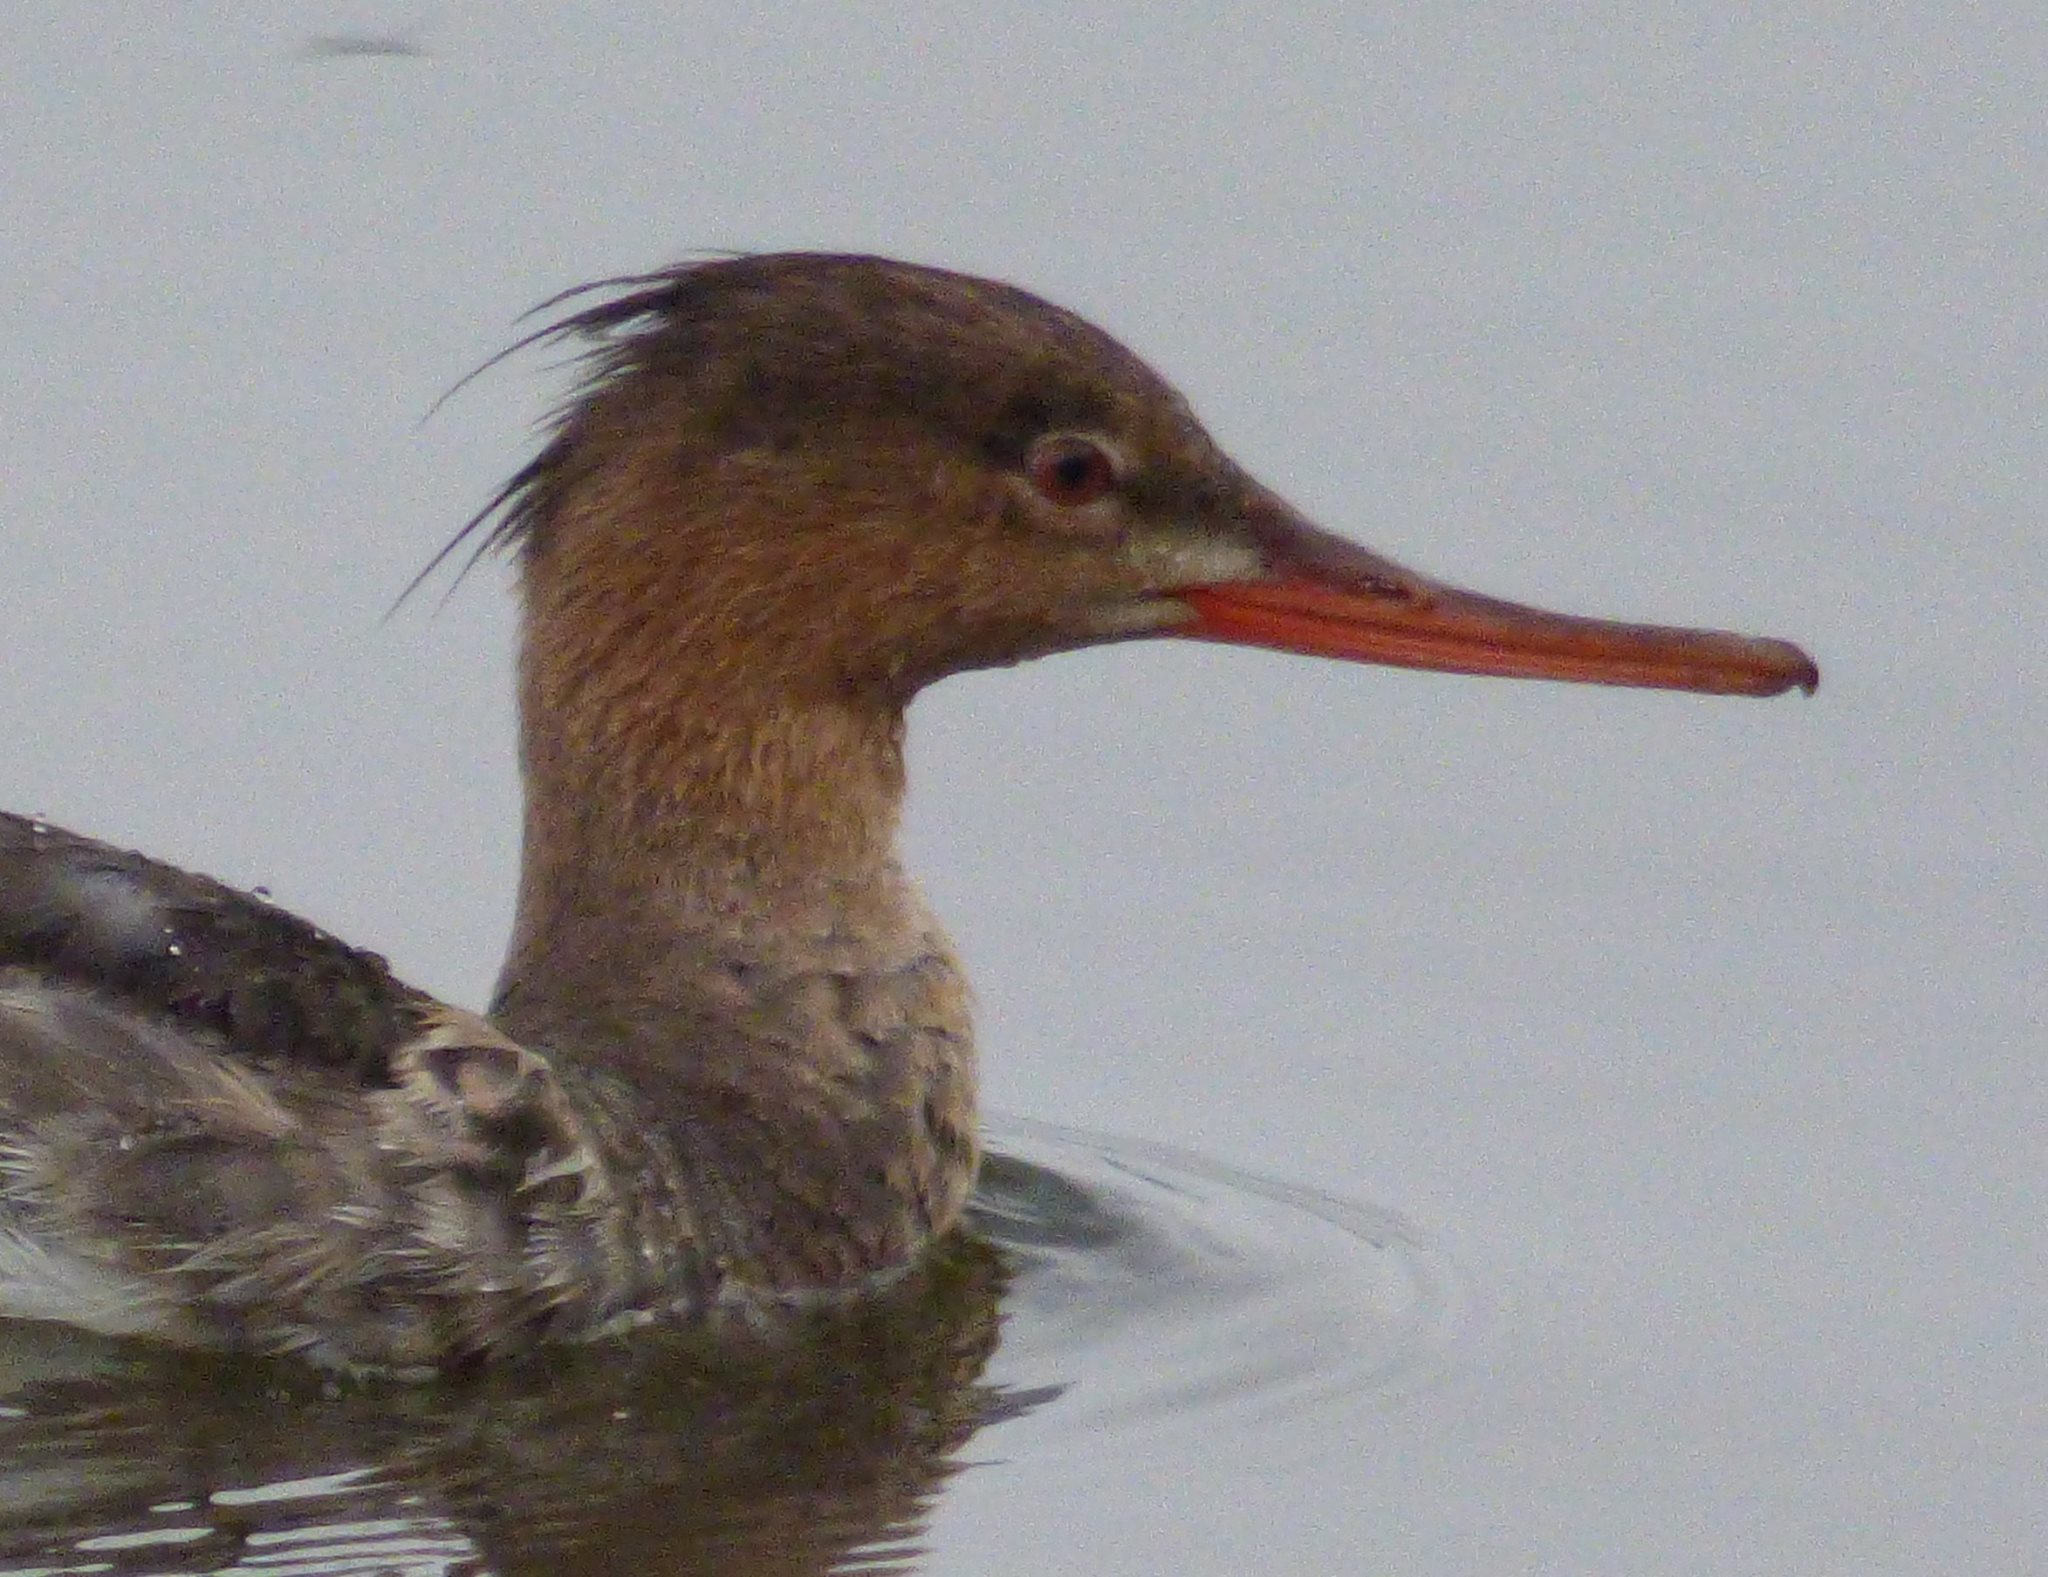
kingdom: Animalia
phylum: Chordata
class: Aves
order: Anseriformes
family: Anatidae
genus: Mergus
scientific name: Mergus serrator
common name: Red-breasted merganser
